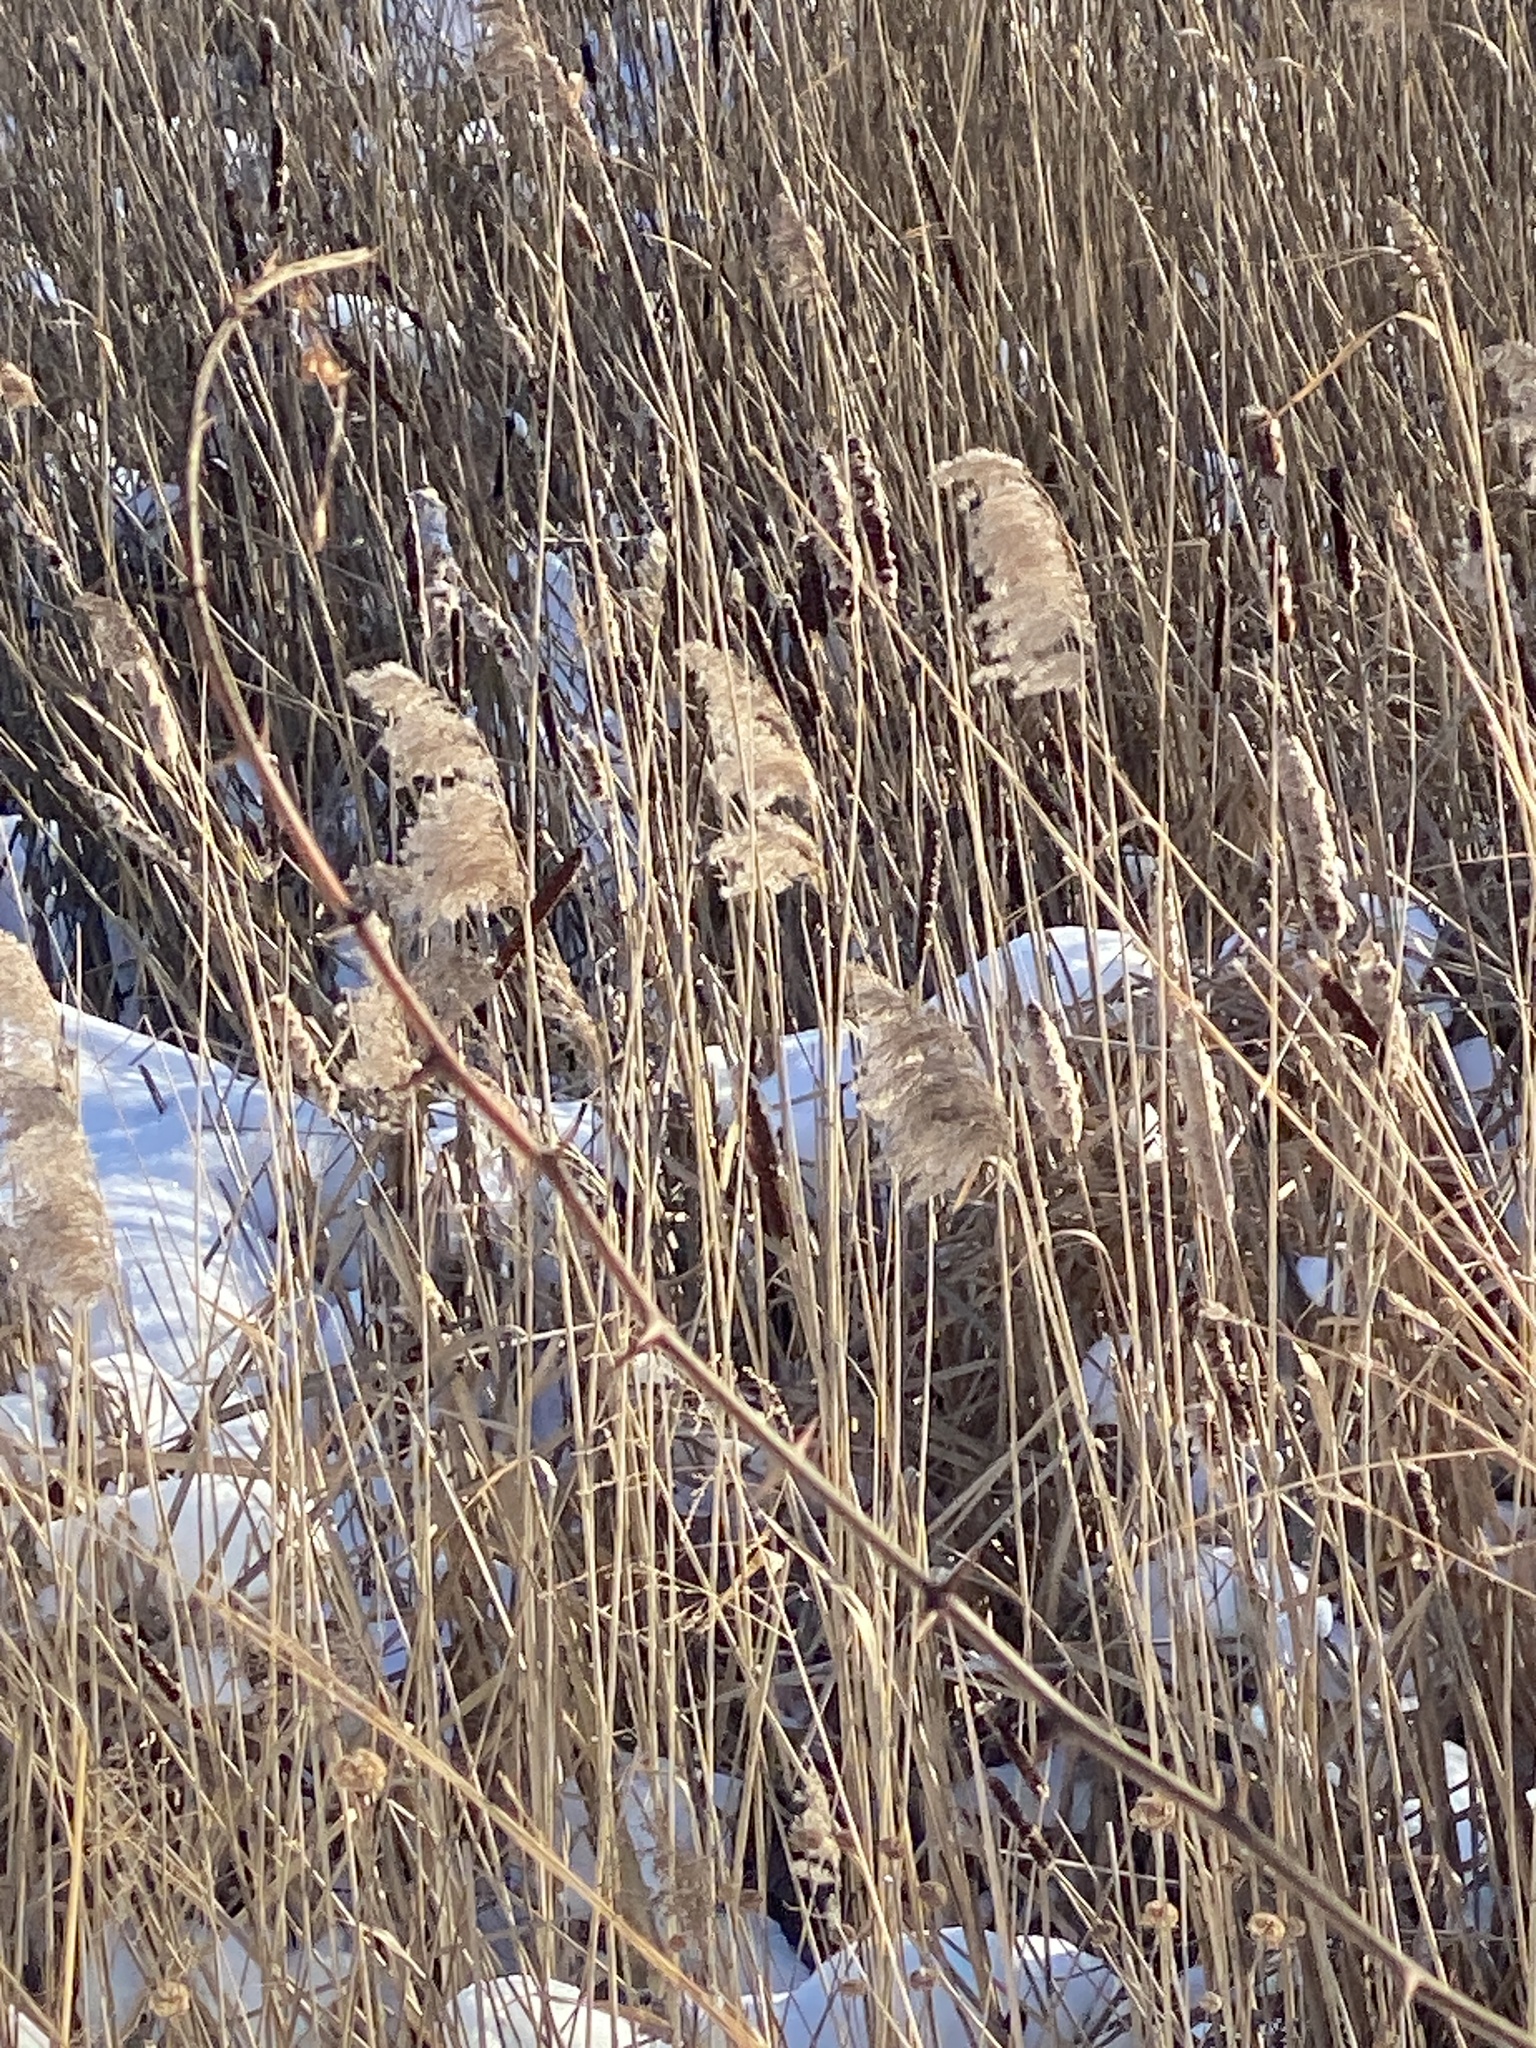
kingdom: Plantae
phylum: Tracheophyta
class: Liliopsida
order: Poales
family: Poaceae
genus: Phragmites
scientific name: Phragmites australis
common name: Common reed
